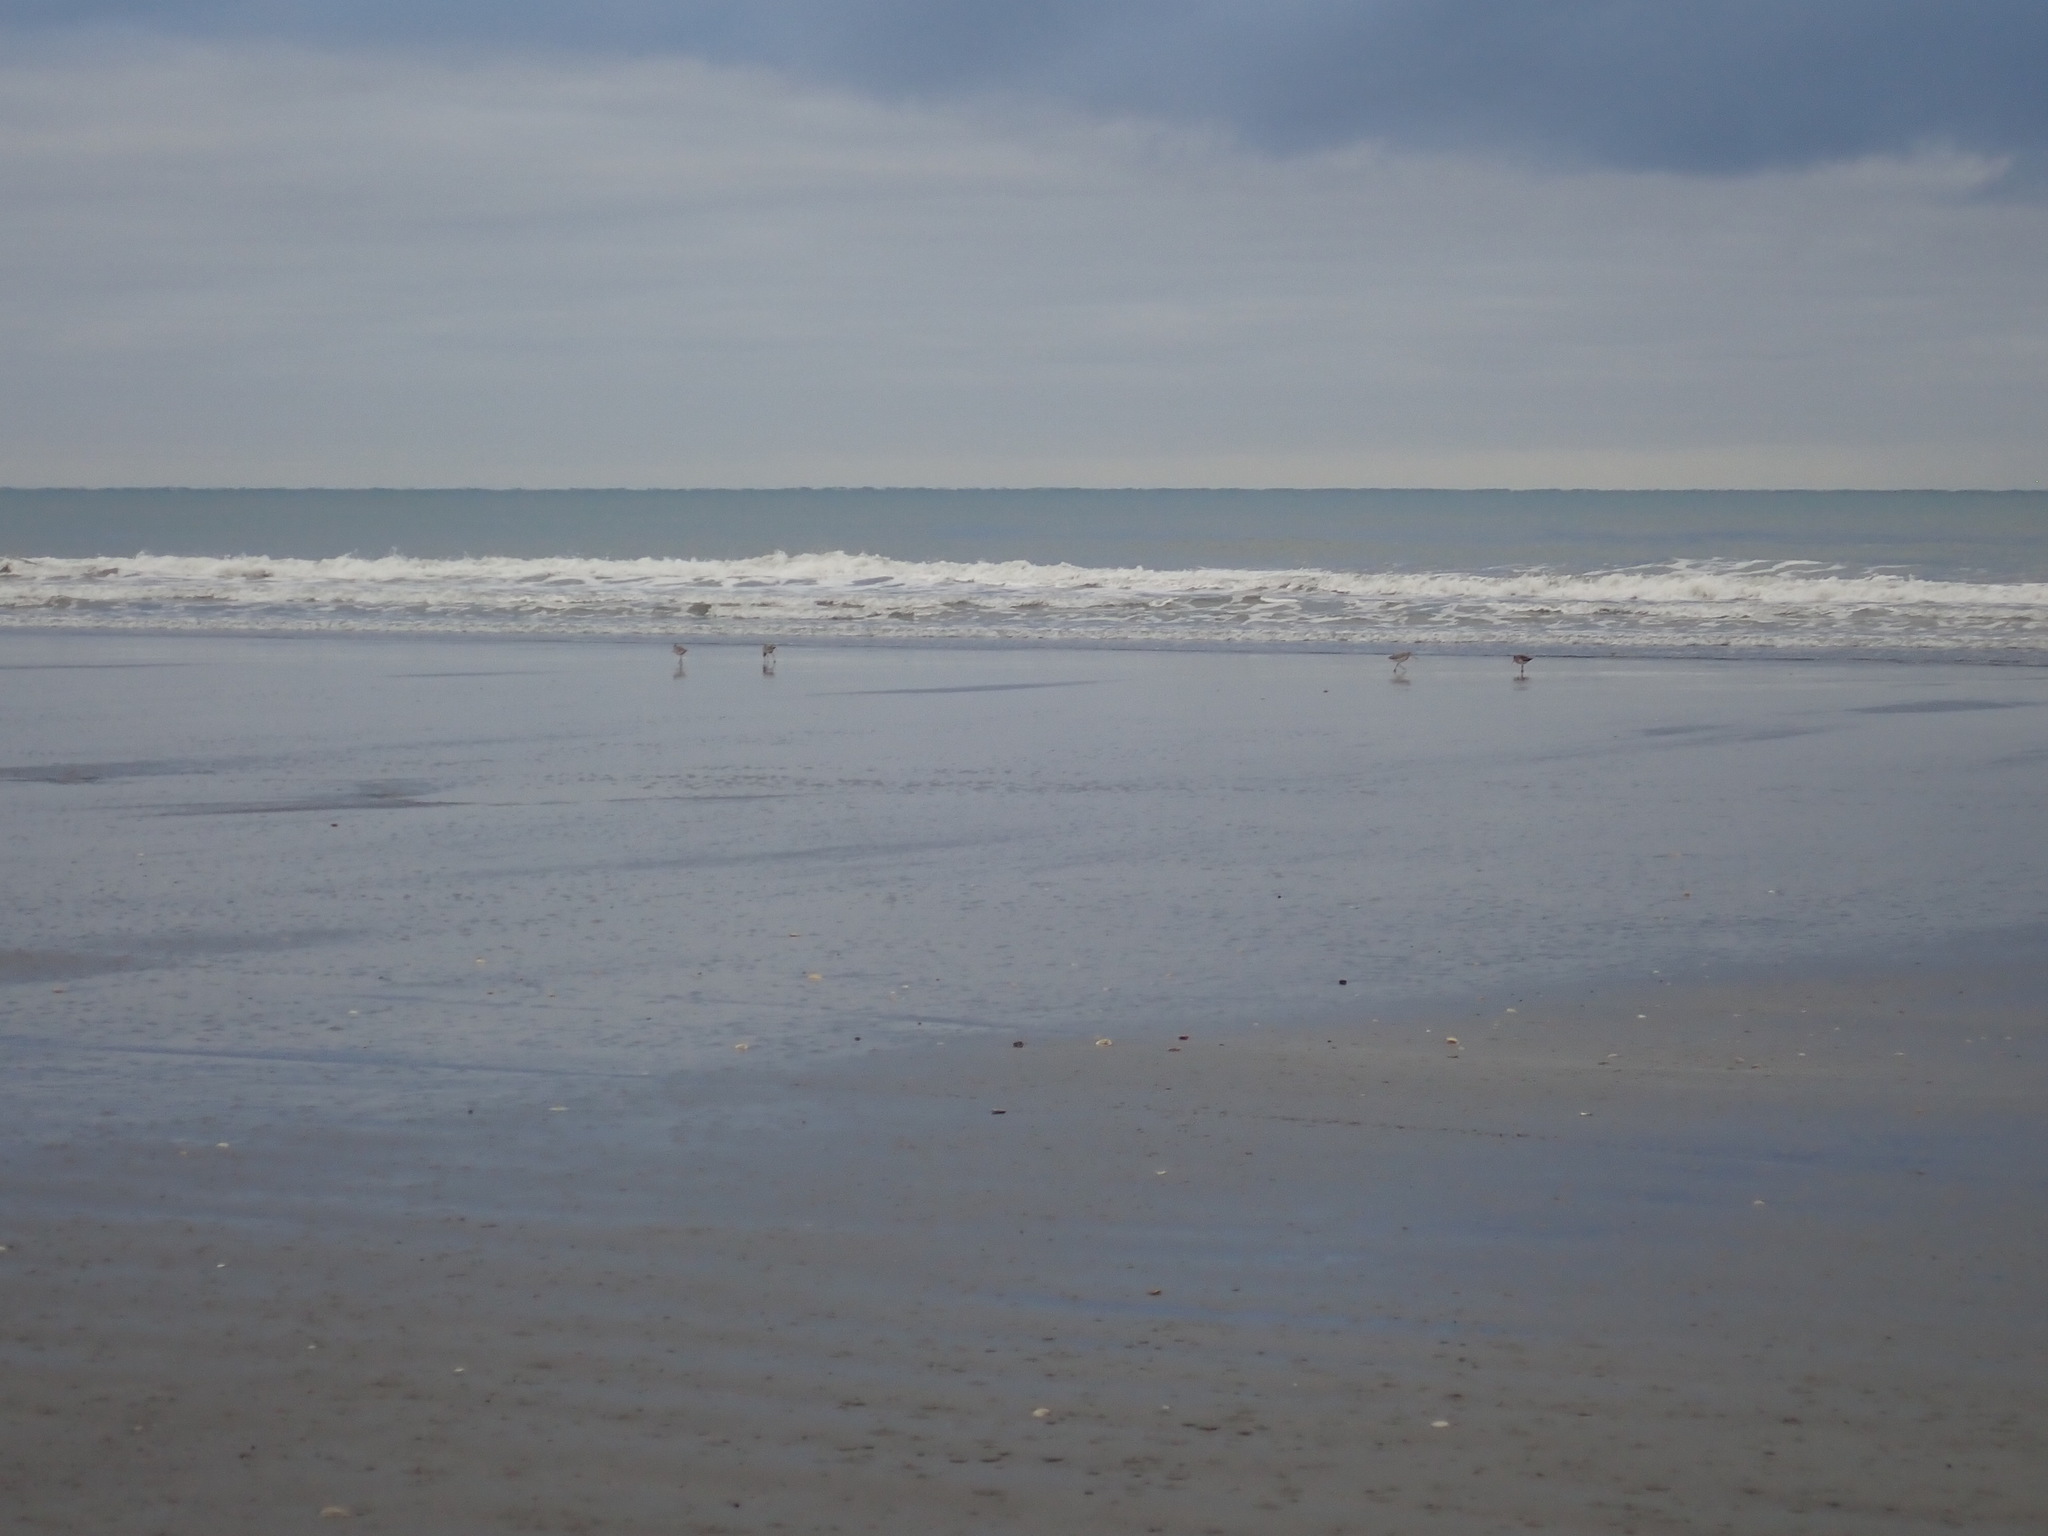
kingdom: Animalia
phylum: Chordata
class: Aves
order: Charadriiformes
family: Scolopacidae
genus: Limosa
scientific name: Limosa lapponica
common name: Bar-tailed godwit
